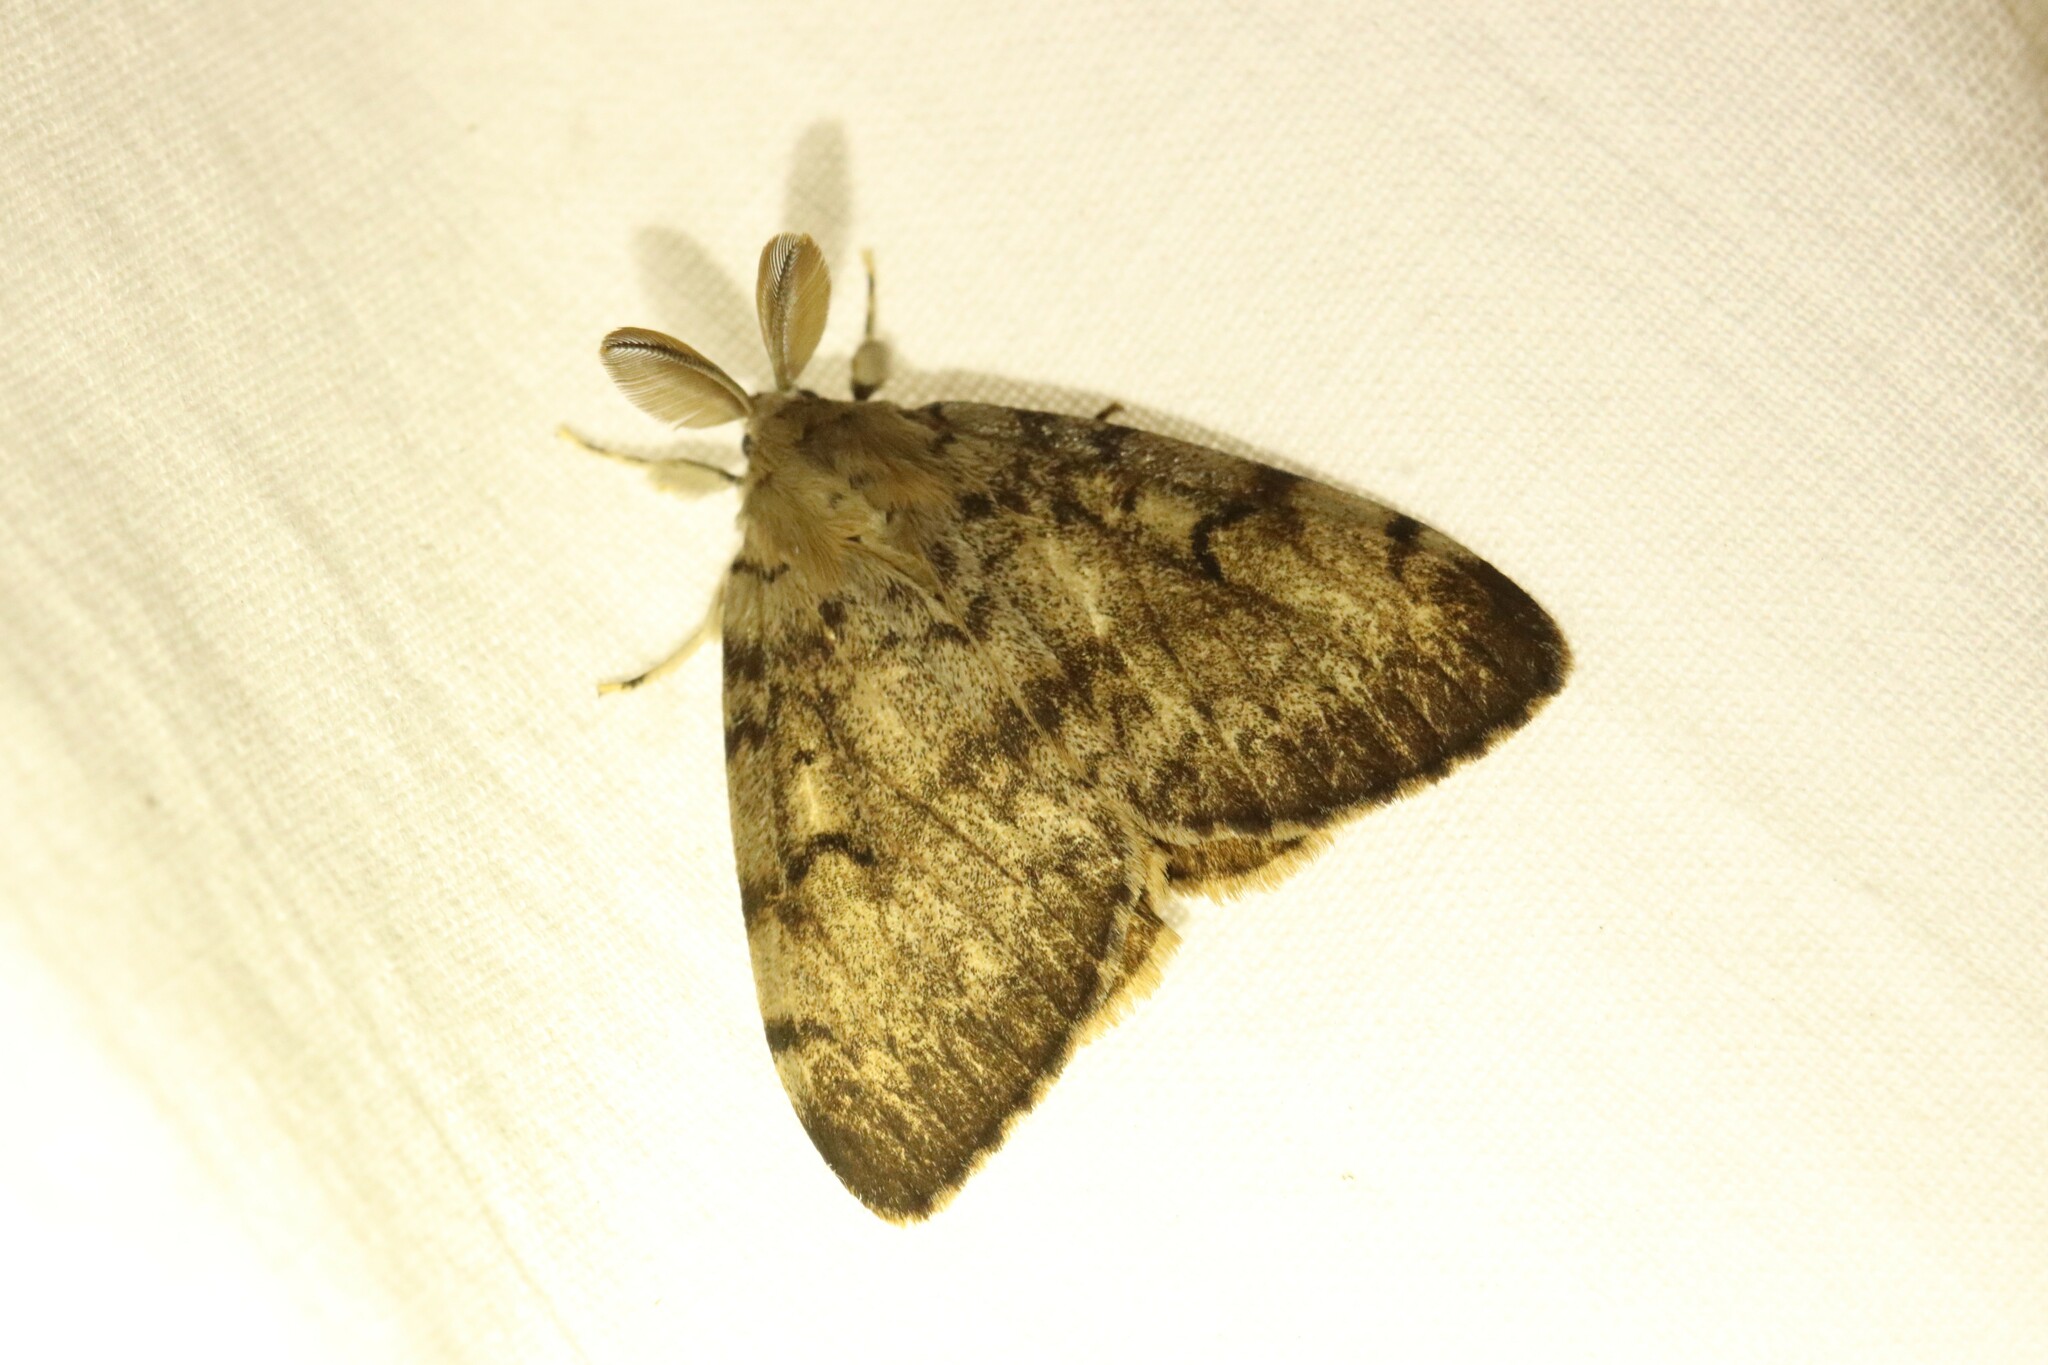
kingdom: Animalia
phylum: Arthropoda
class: Insecta
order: Lepidoptera
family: Erebidae
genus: Lymantria
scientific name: Lymantria dispar
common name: Gypsy moth
